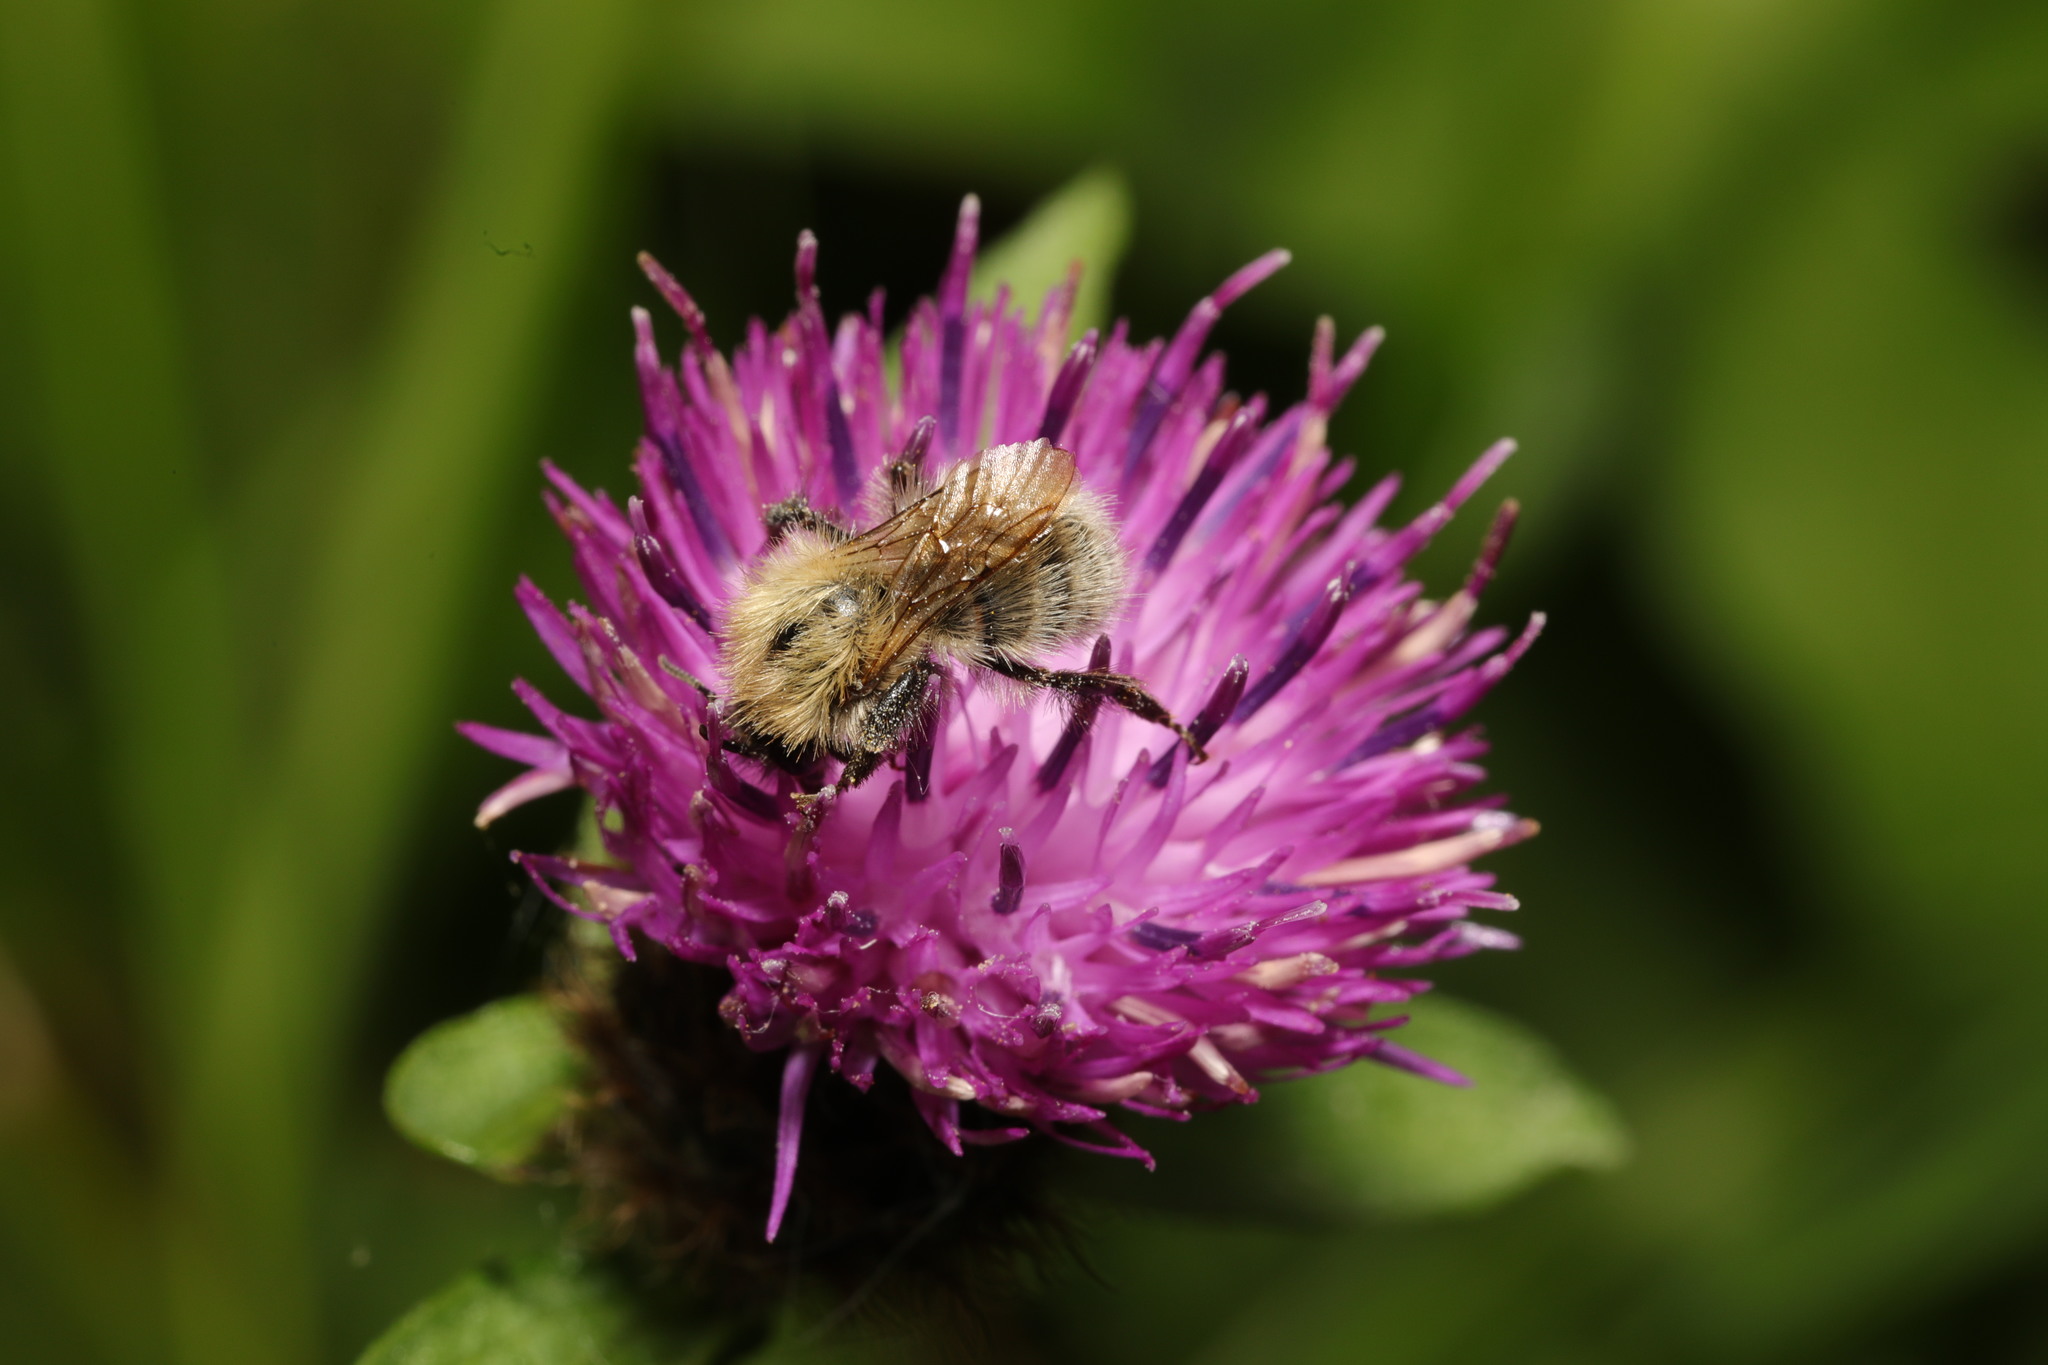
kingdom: Animalia
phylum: Arthropoda
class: Insecta
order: Hymenoptera
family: Apidae
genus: Bombus
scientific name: Bombus pascuorum
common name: Common carder bee
